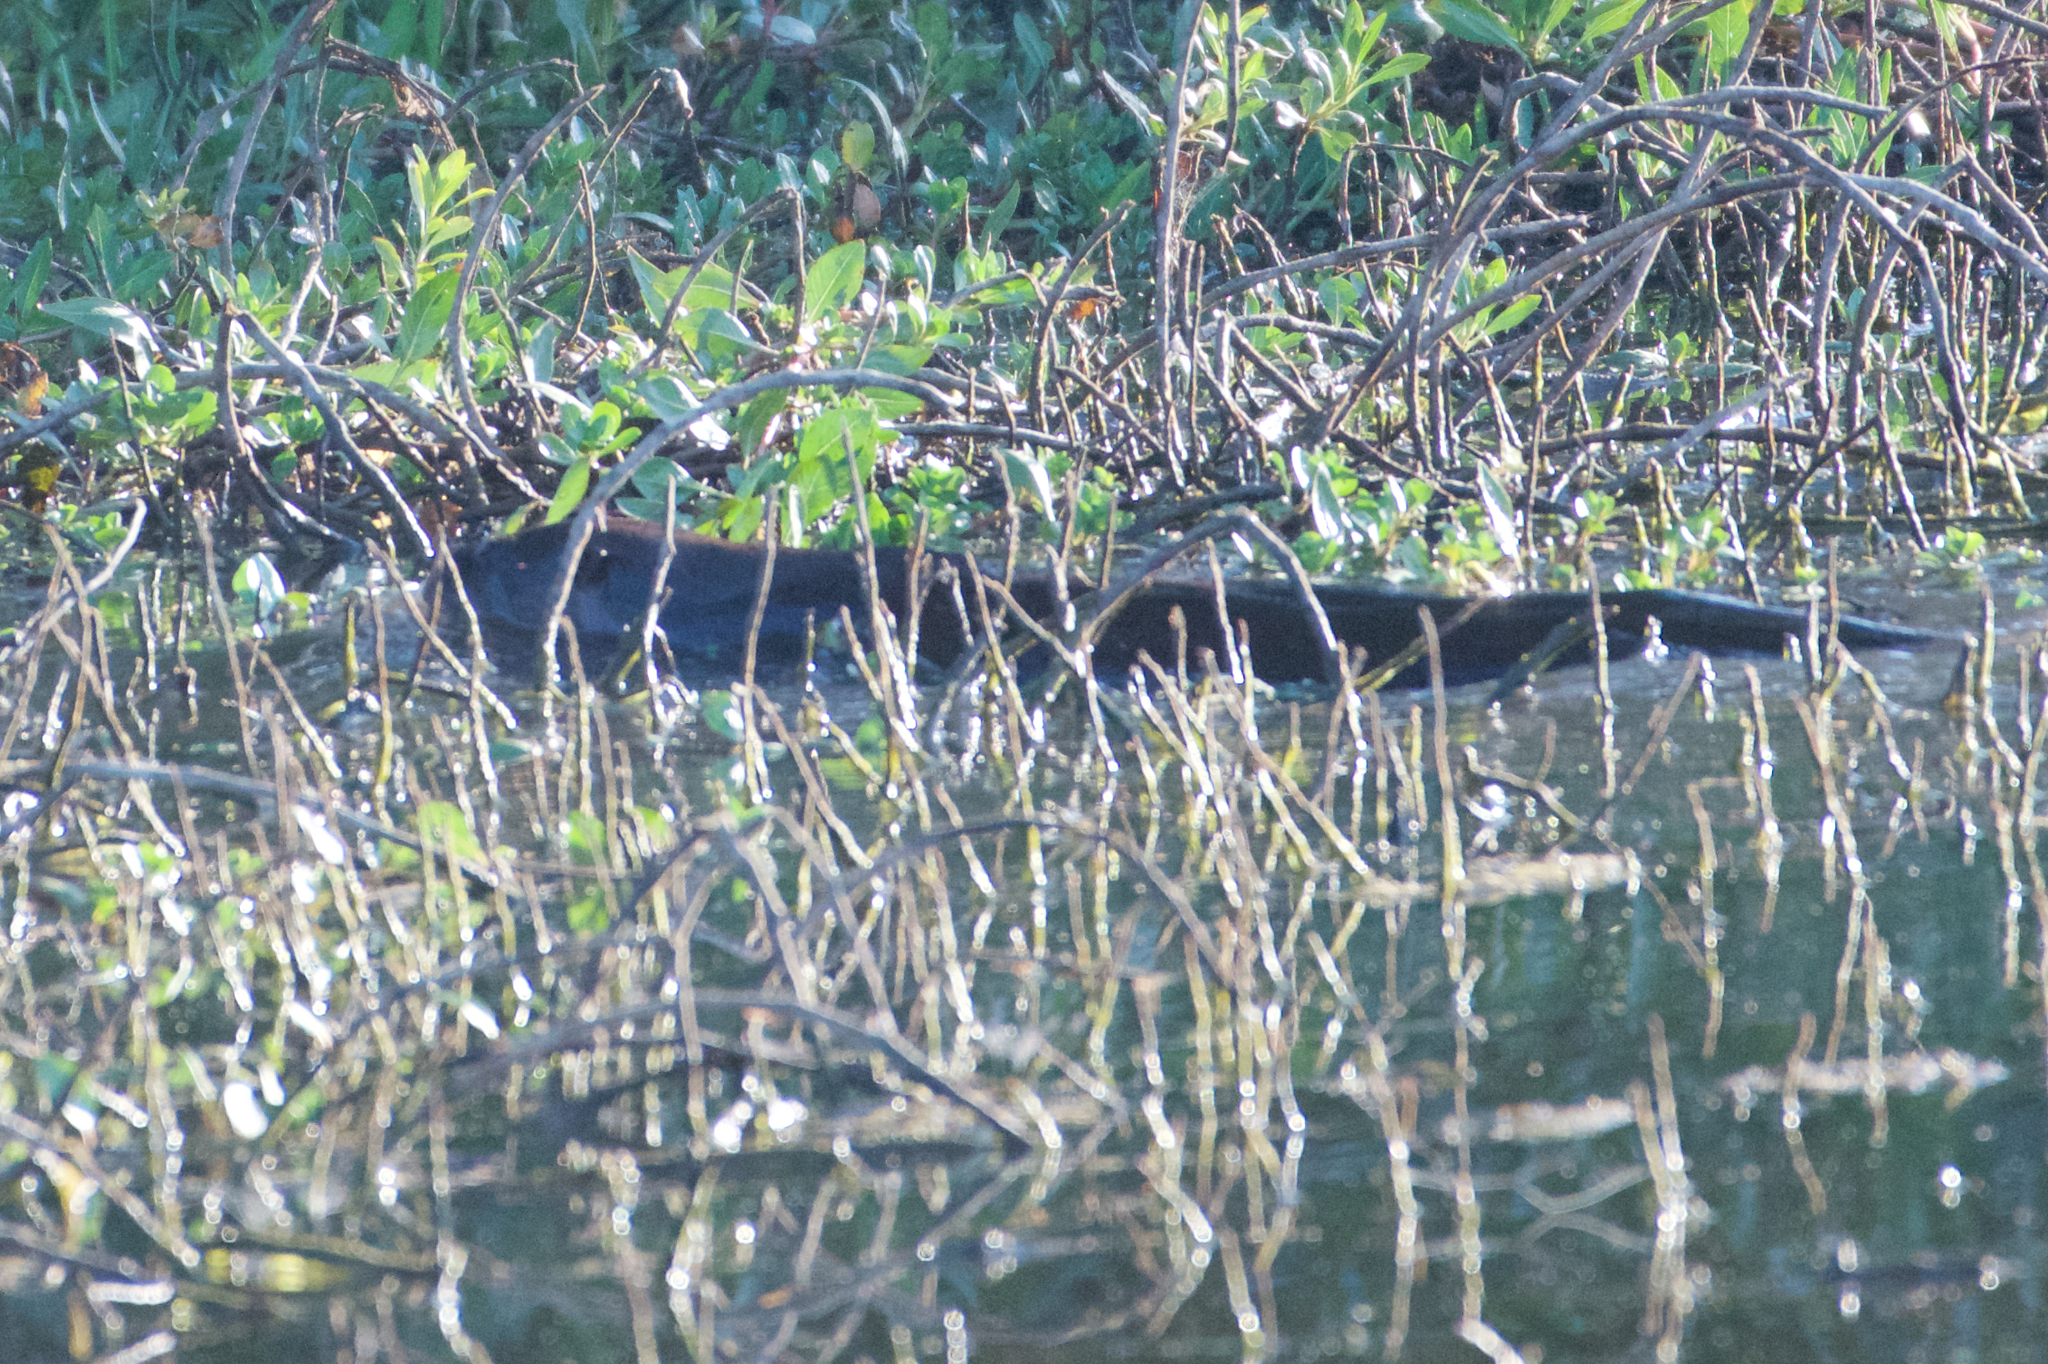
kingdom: Animalia
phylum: Chordata
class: Mammalia
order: Carnivora
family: Mustelidae
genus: Lontra
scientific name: Lontra canadensis
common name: North american river otter
